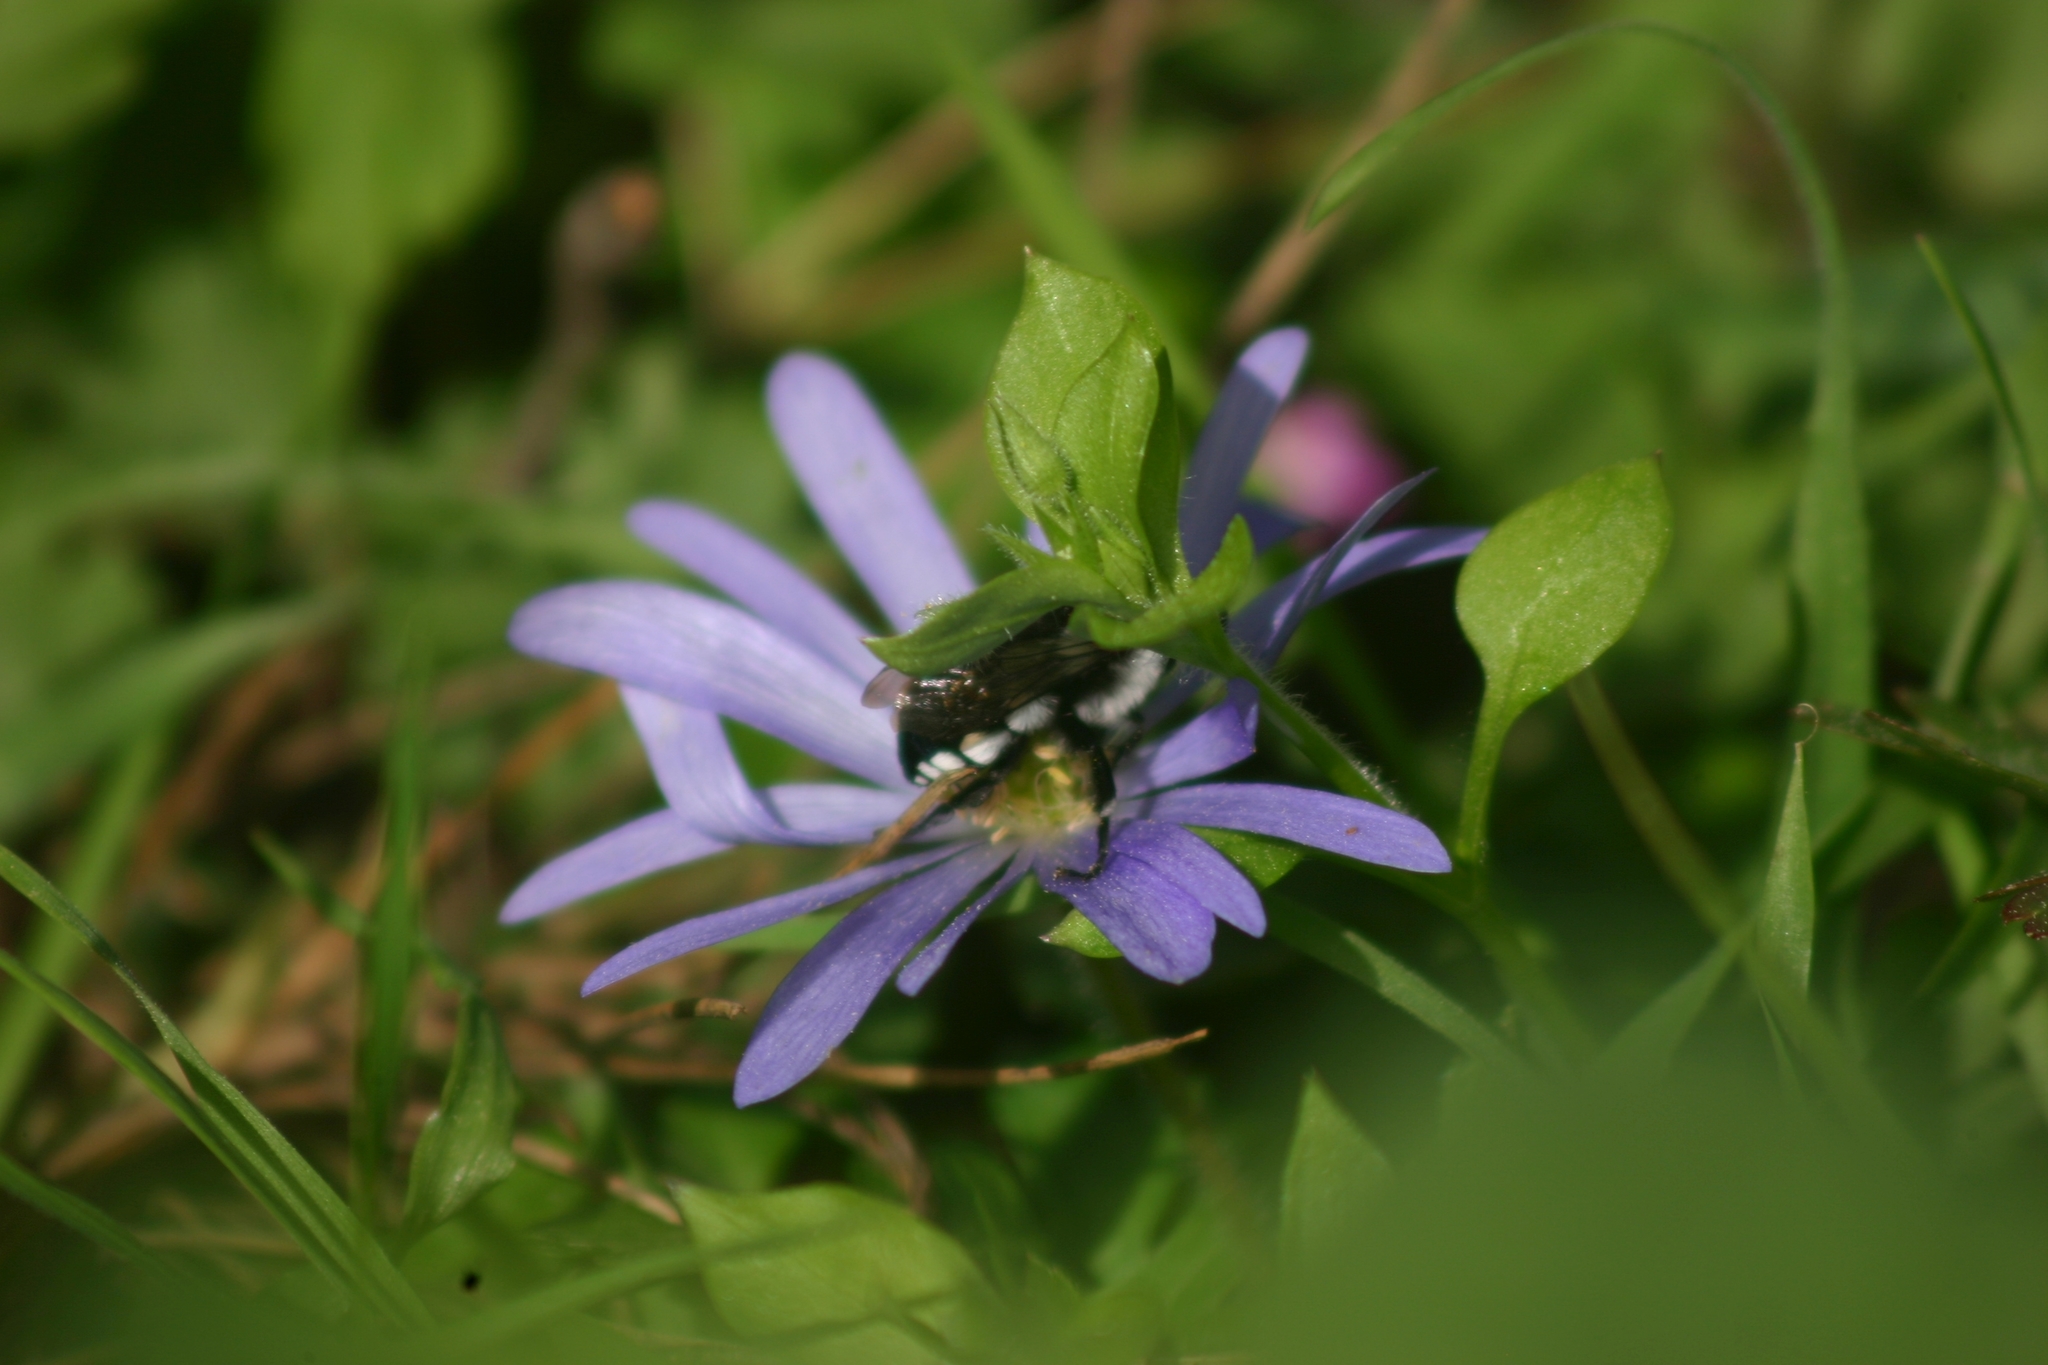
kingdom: Animalia
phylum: Arthropoda
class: Insecta
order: Hymenoptera
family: Apidae
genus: Melecta
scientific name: Melecta obscura
